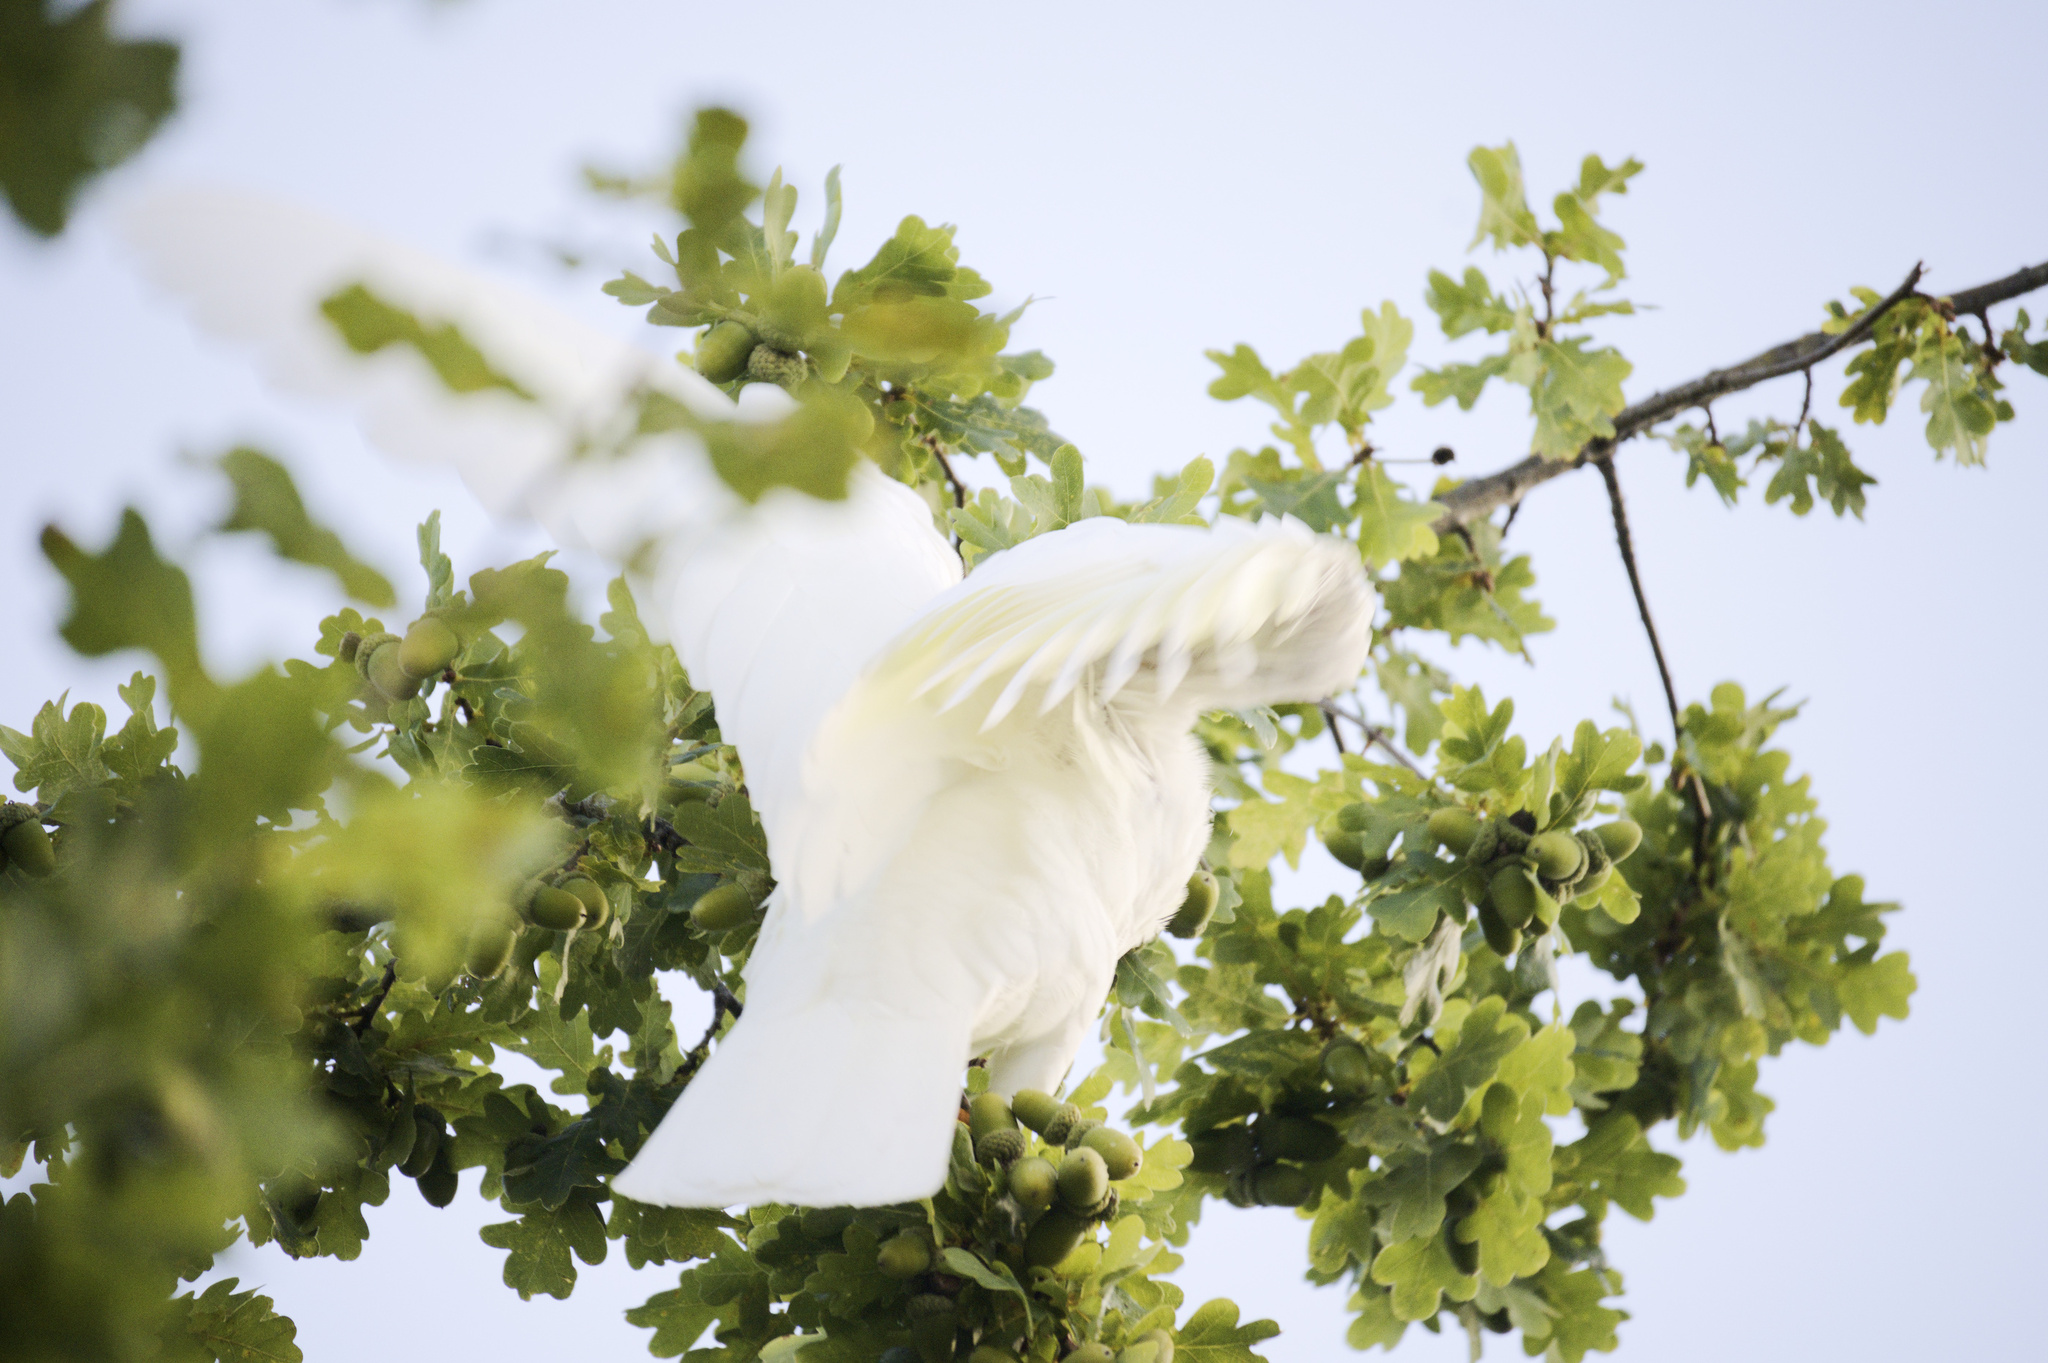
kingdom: Animalia
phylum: Chordata
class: Aves
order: Psittaciformes
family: Psittacidae
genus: Cacatua
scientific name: Cacatua galerita
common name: Sulphur-crested cockatoo
